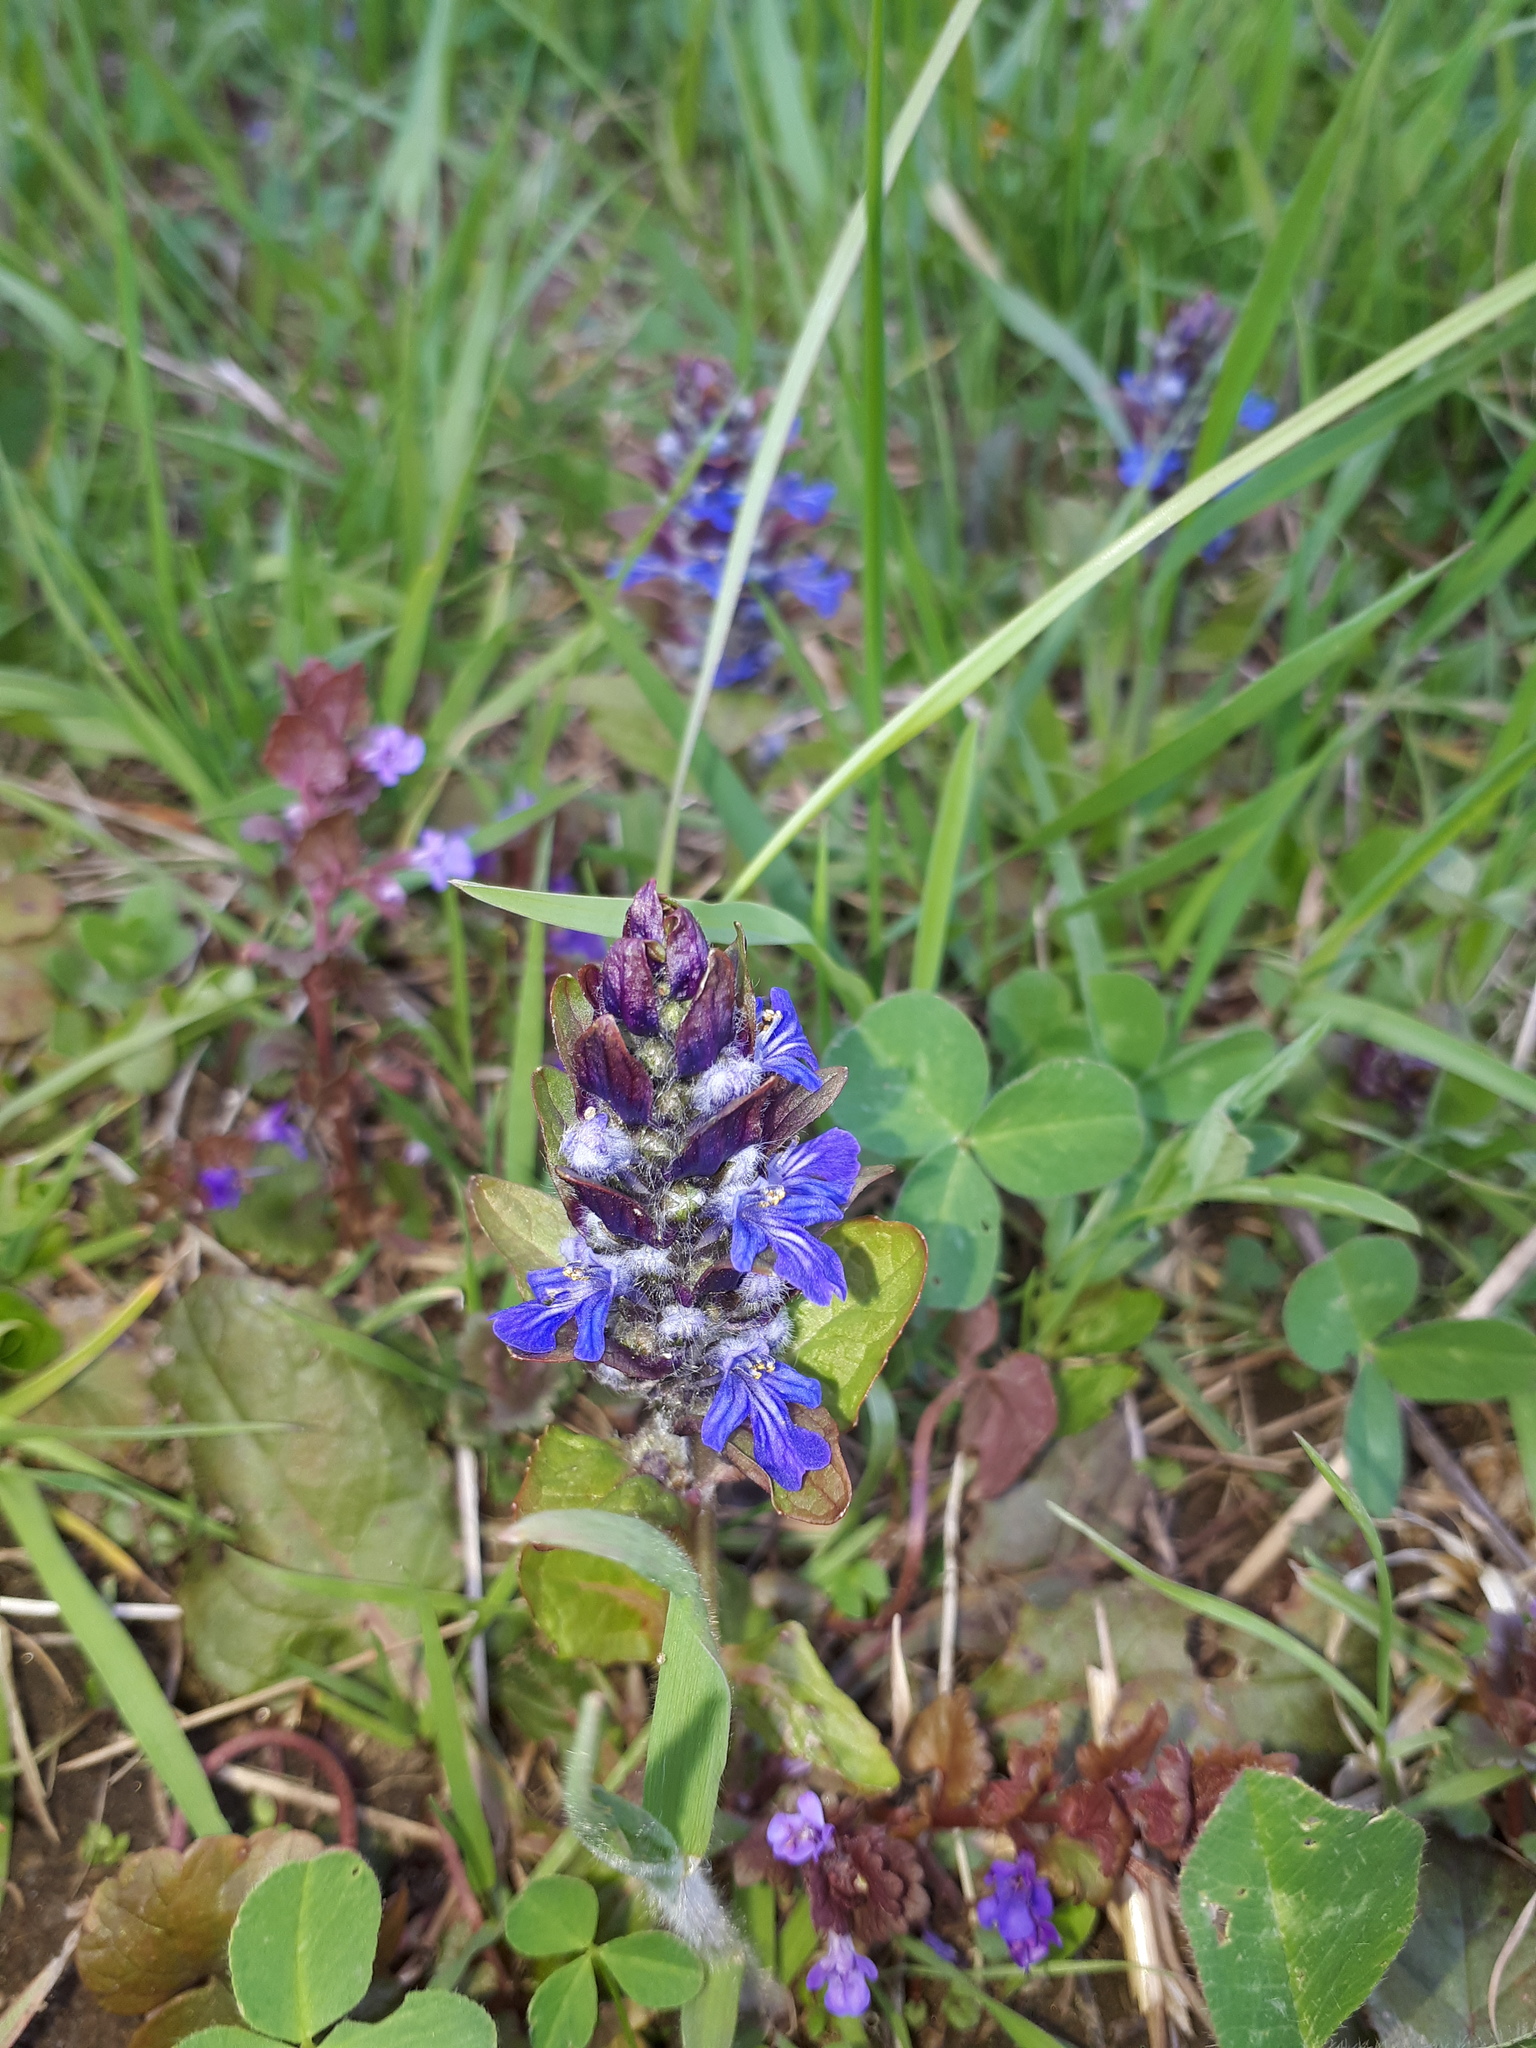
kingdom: Plantae
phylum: Tracheophyta
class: Magnoliopsida
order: Lamiales
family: Lamiaceae
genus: Ajuga
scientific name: Ajuga reptans
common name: Bugle
